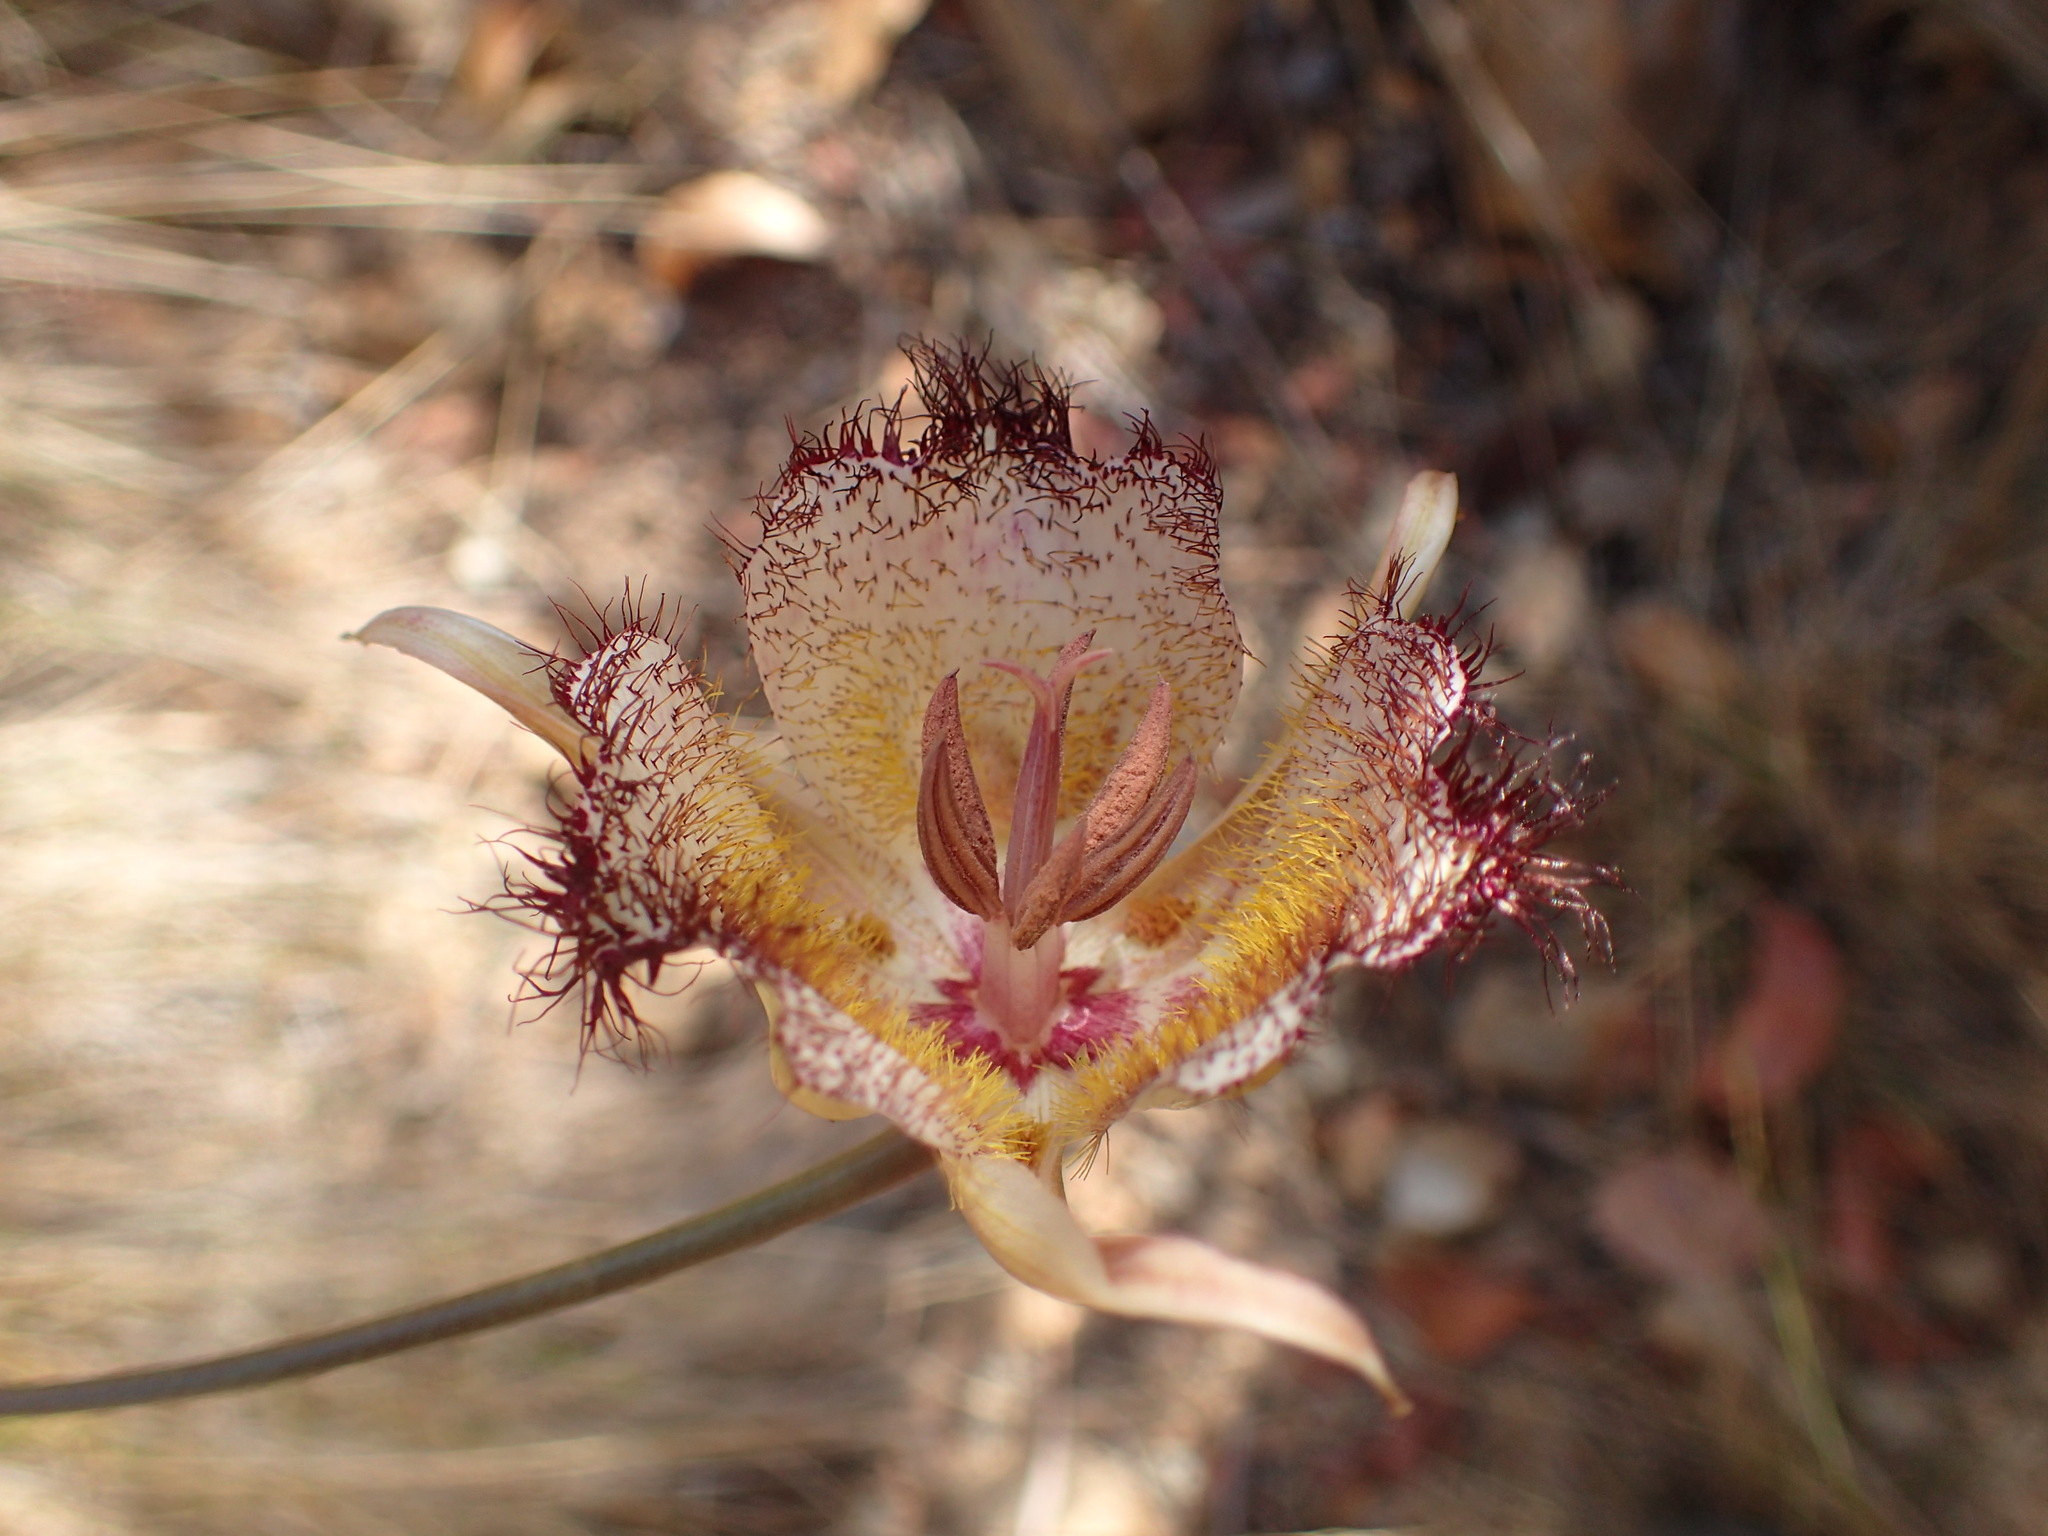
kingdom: Plantae
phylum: Tracheophyta
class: Liliopsida
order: Liliales
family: Liliaceae
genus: Calochortus
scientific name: Calochortus fimbriatus
